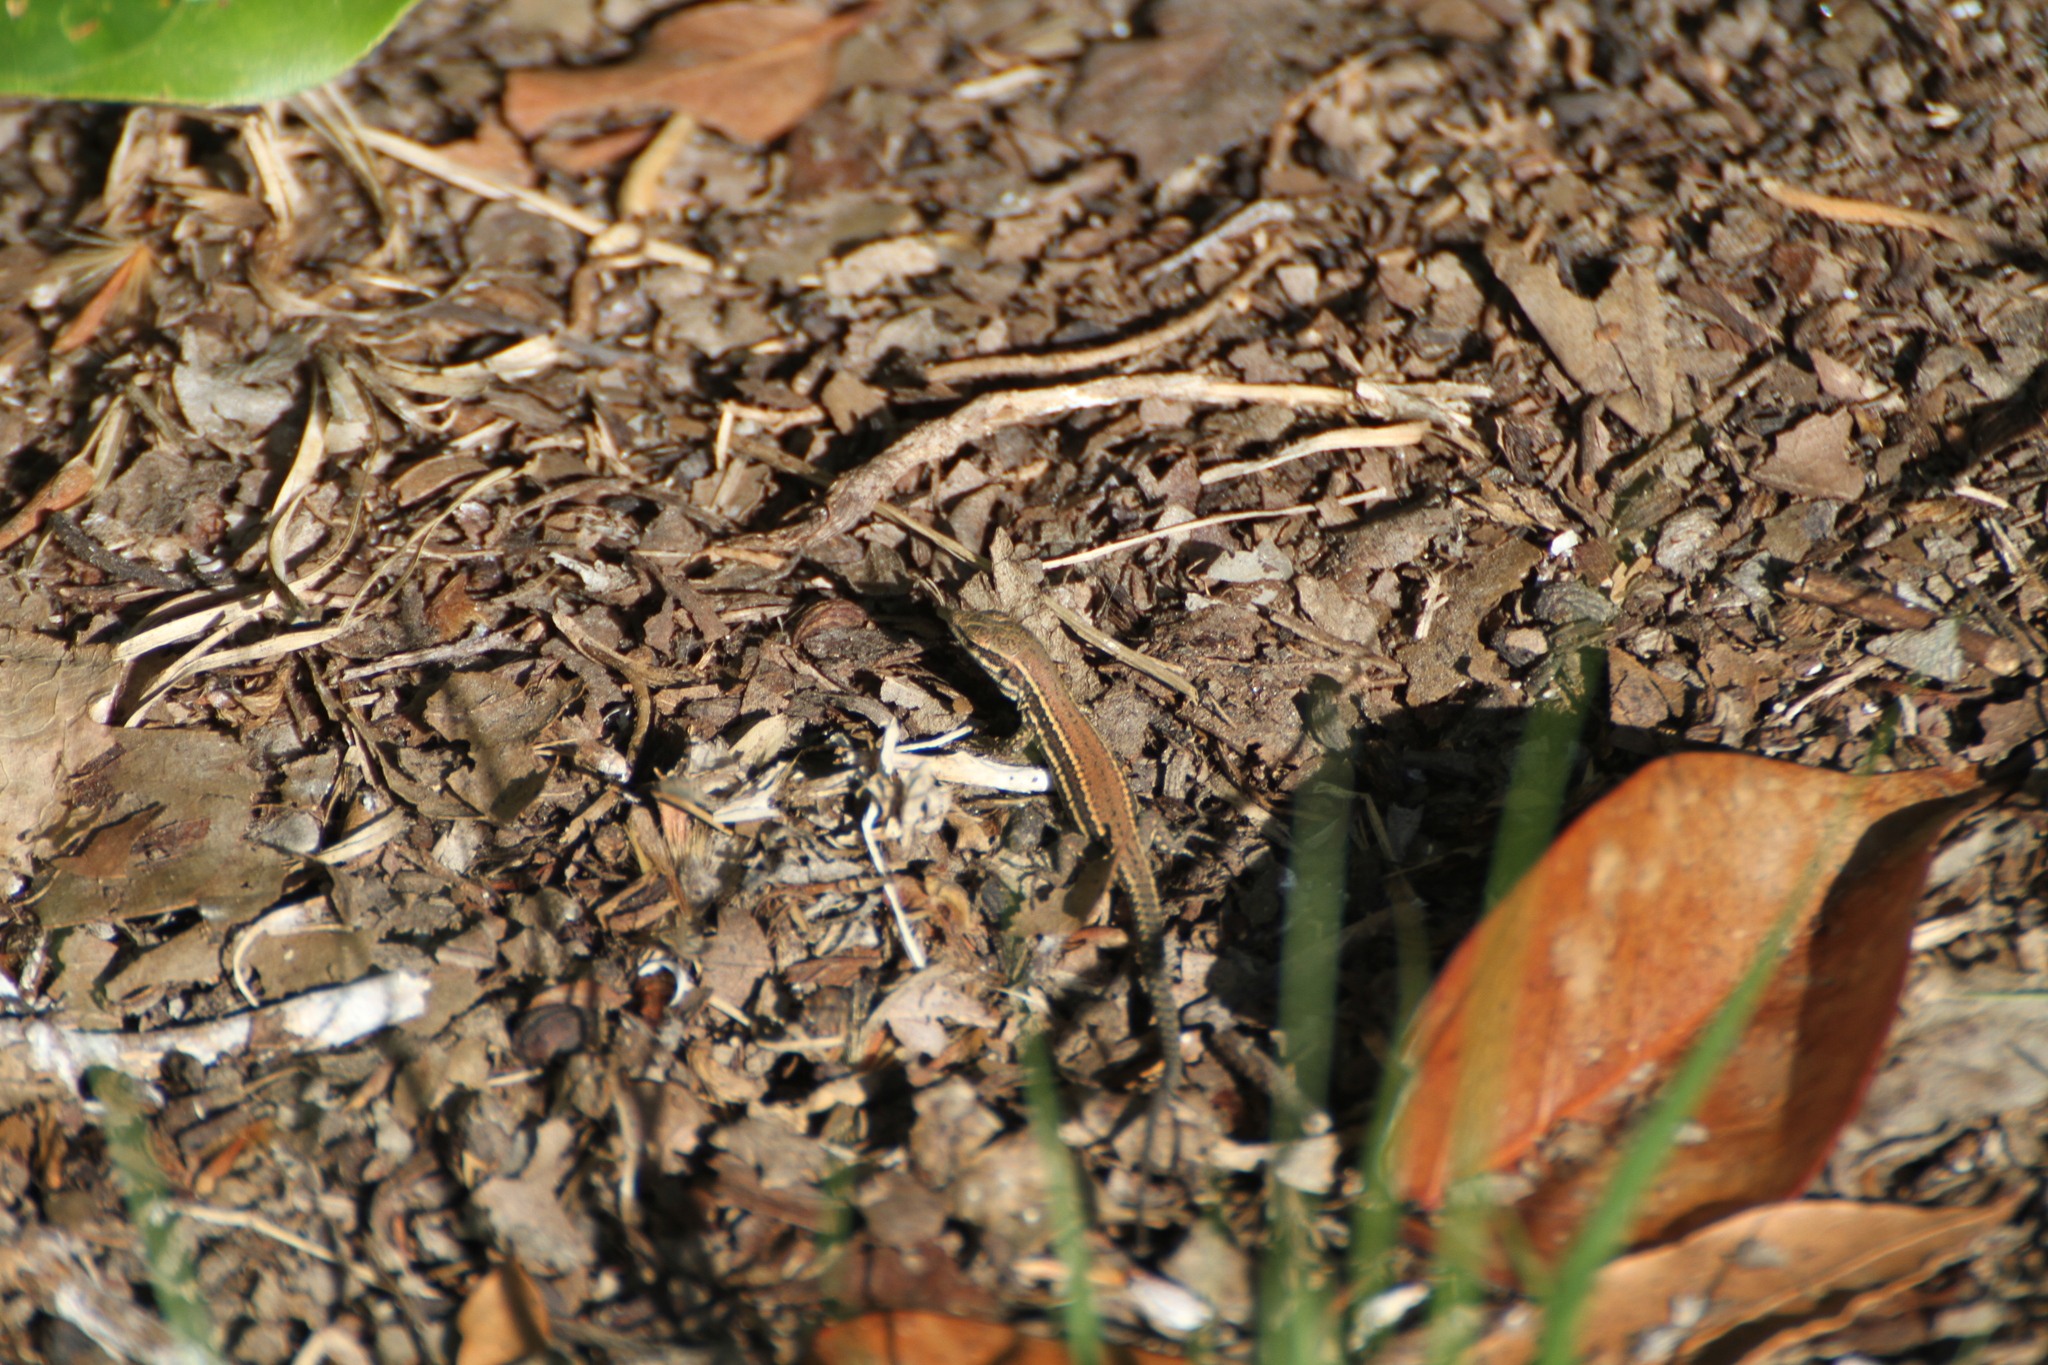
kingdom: Animalia
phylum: Chordata
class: Squamata
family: Lacertidae
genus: Podarcis
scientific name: Podarcis muralis
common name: Common wall lizard
